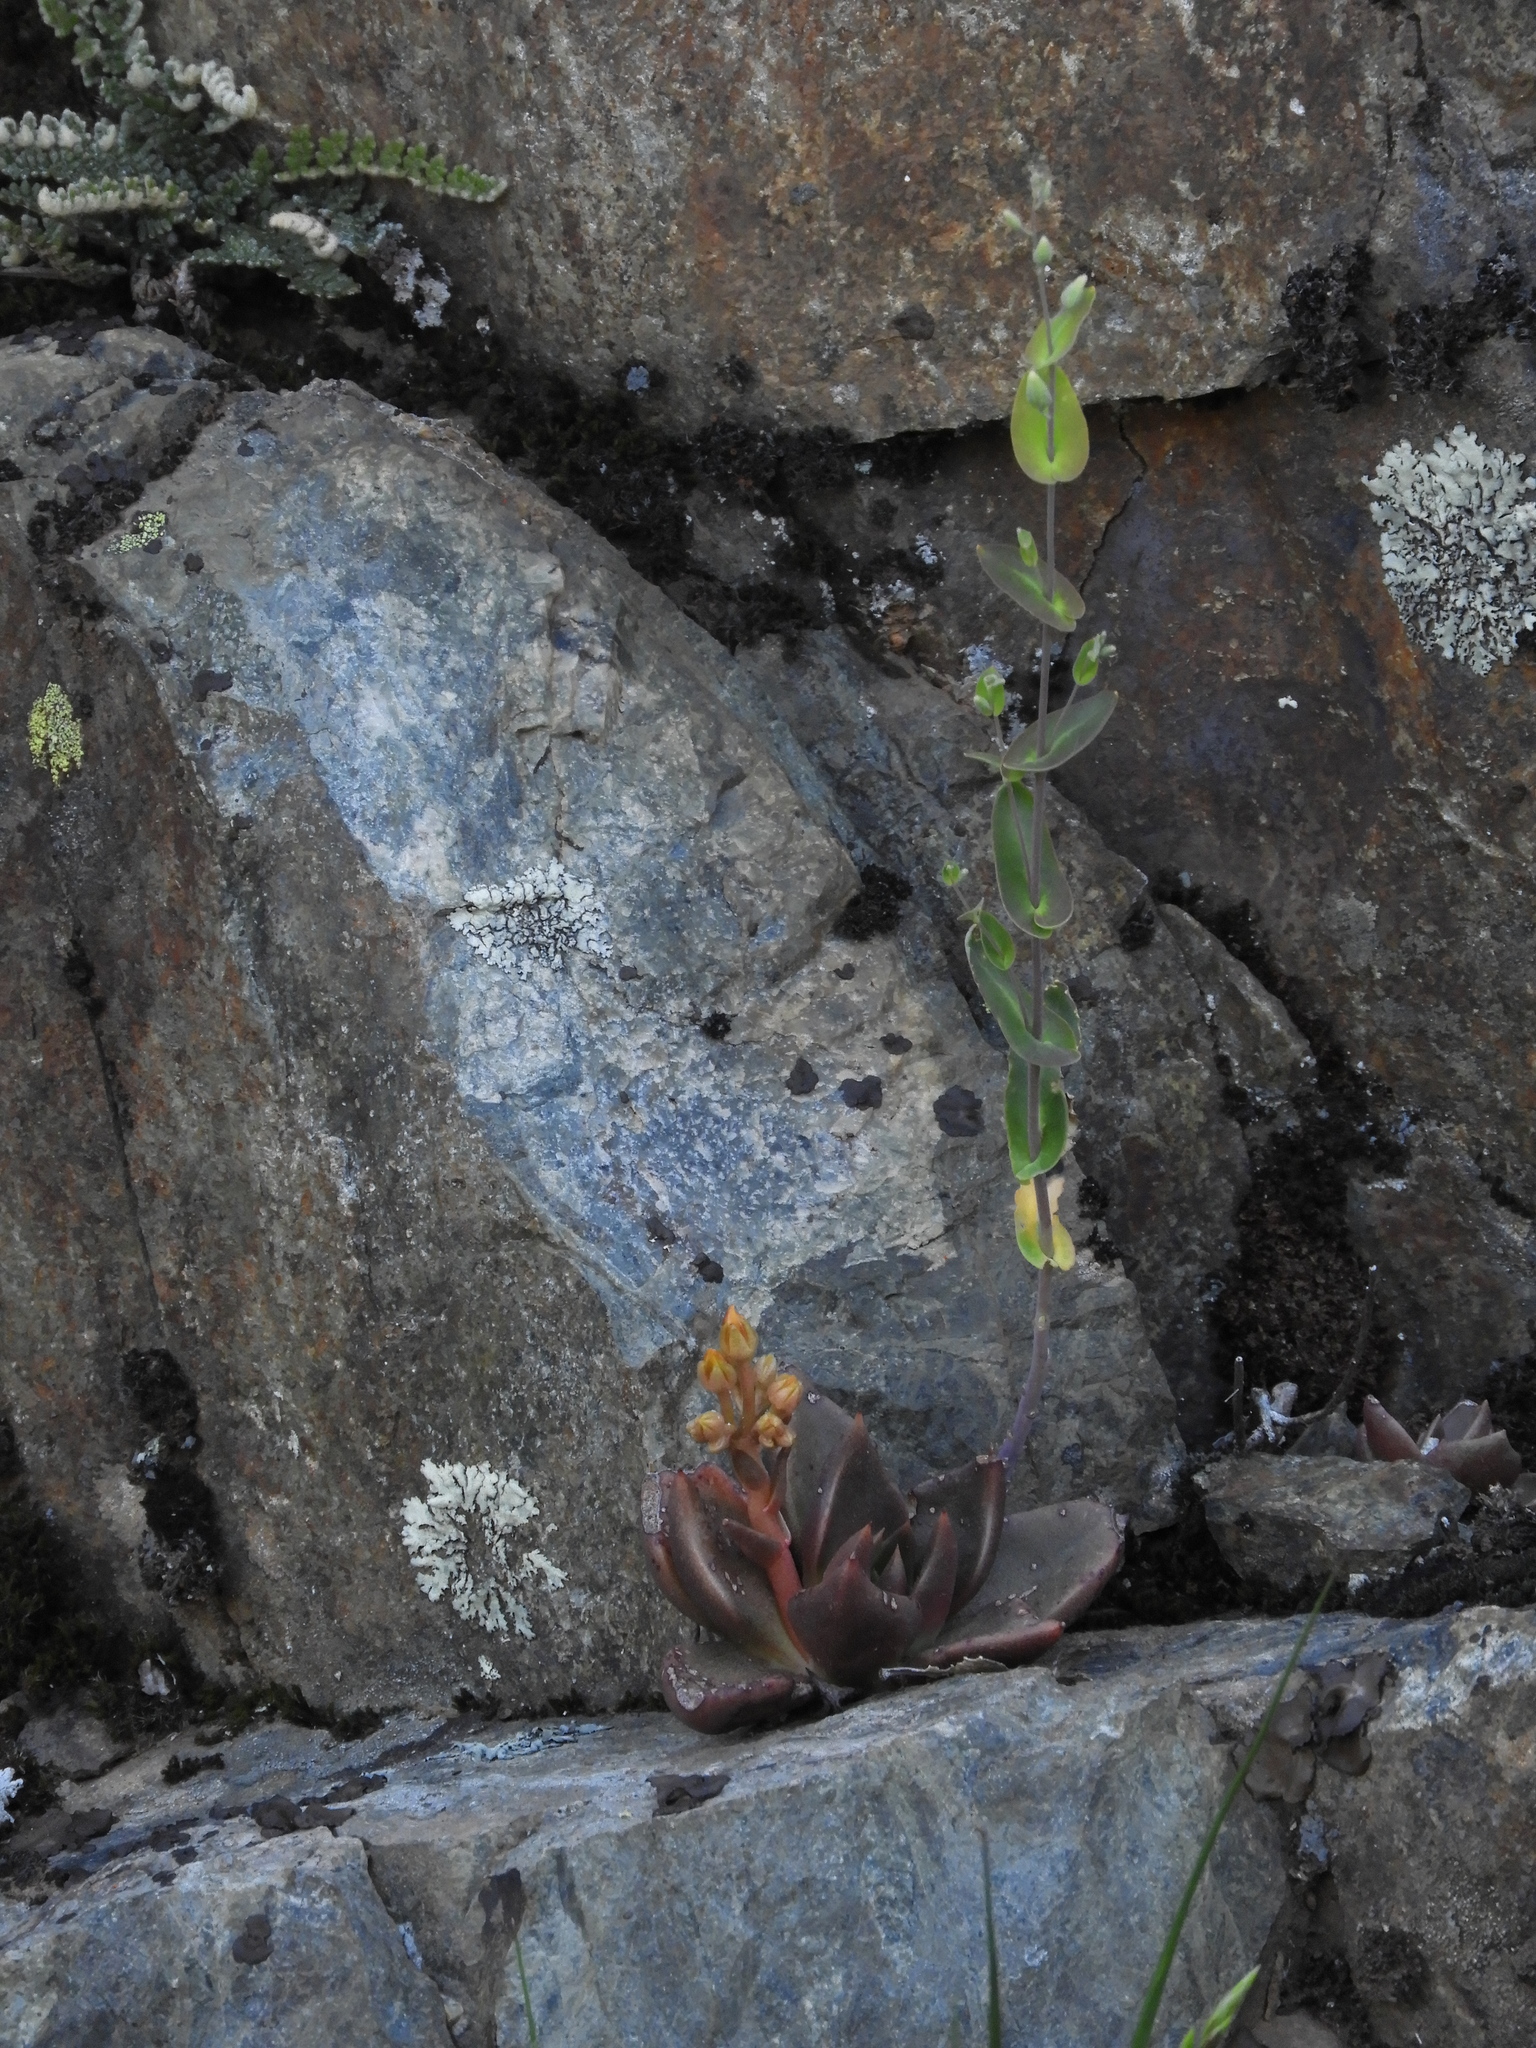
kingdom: Plantae
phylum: Tracheophyta
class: Magnoliopsida
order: Saxifragales
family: Crassulaceae
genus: Dudleya
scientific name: Dudleya cymosa
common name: Canyon dudleya
